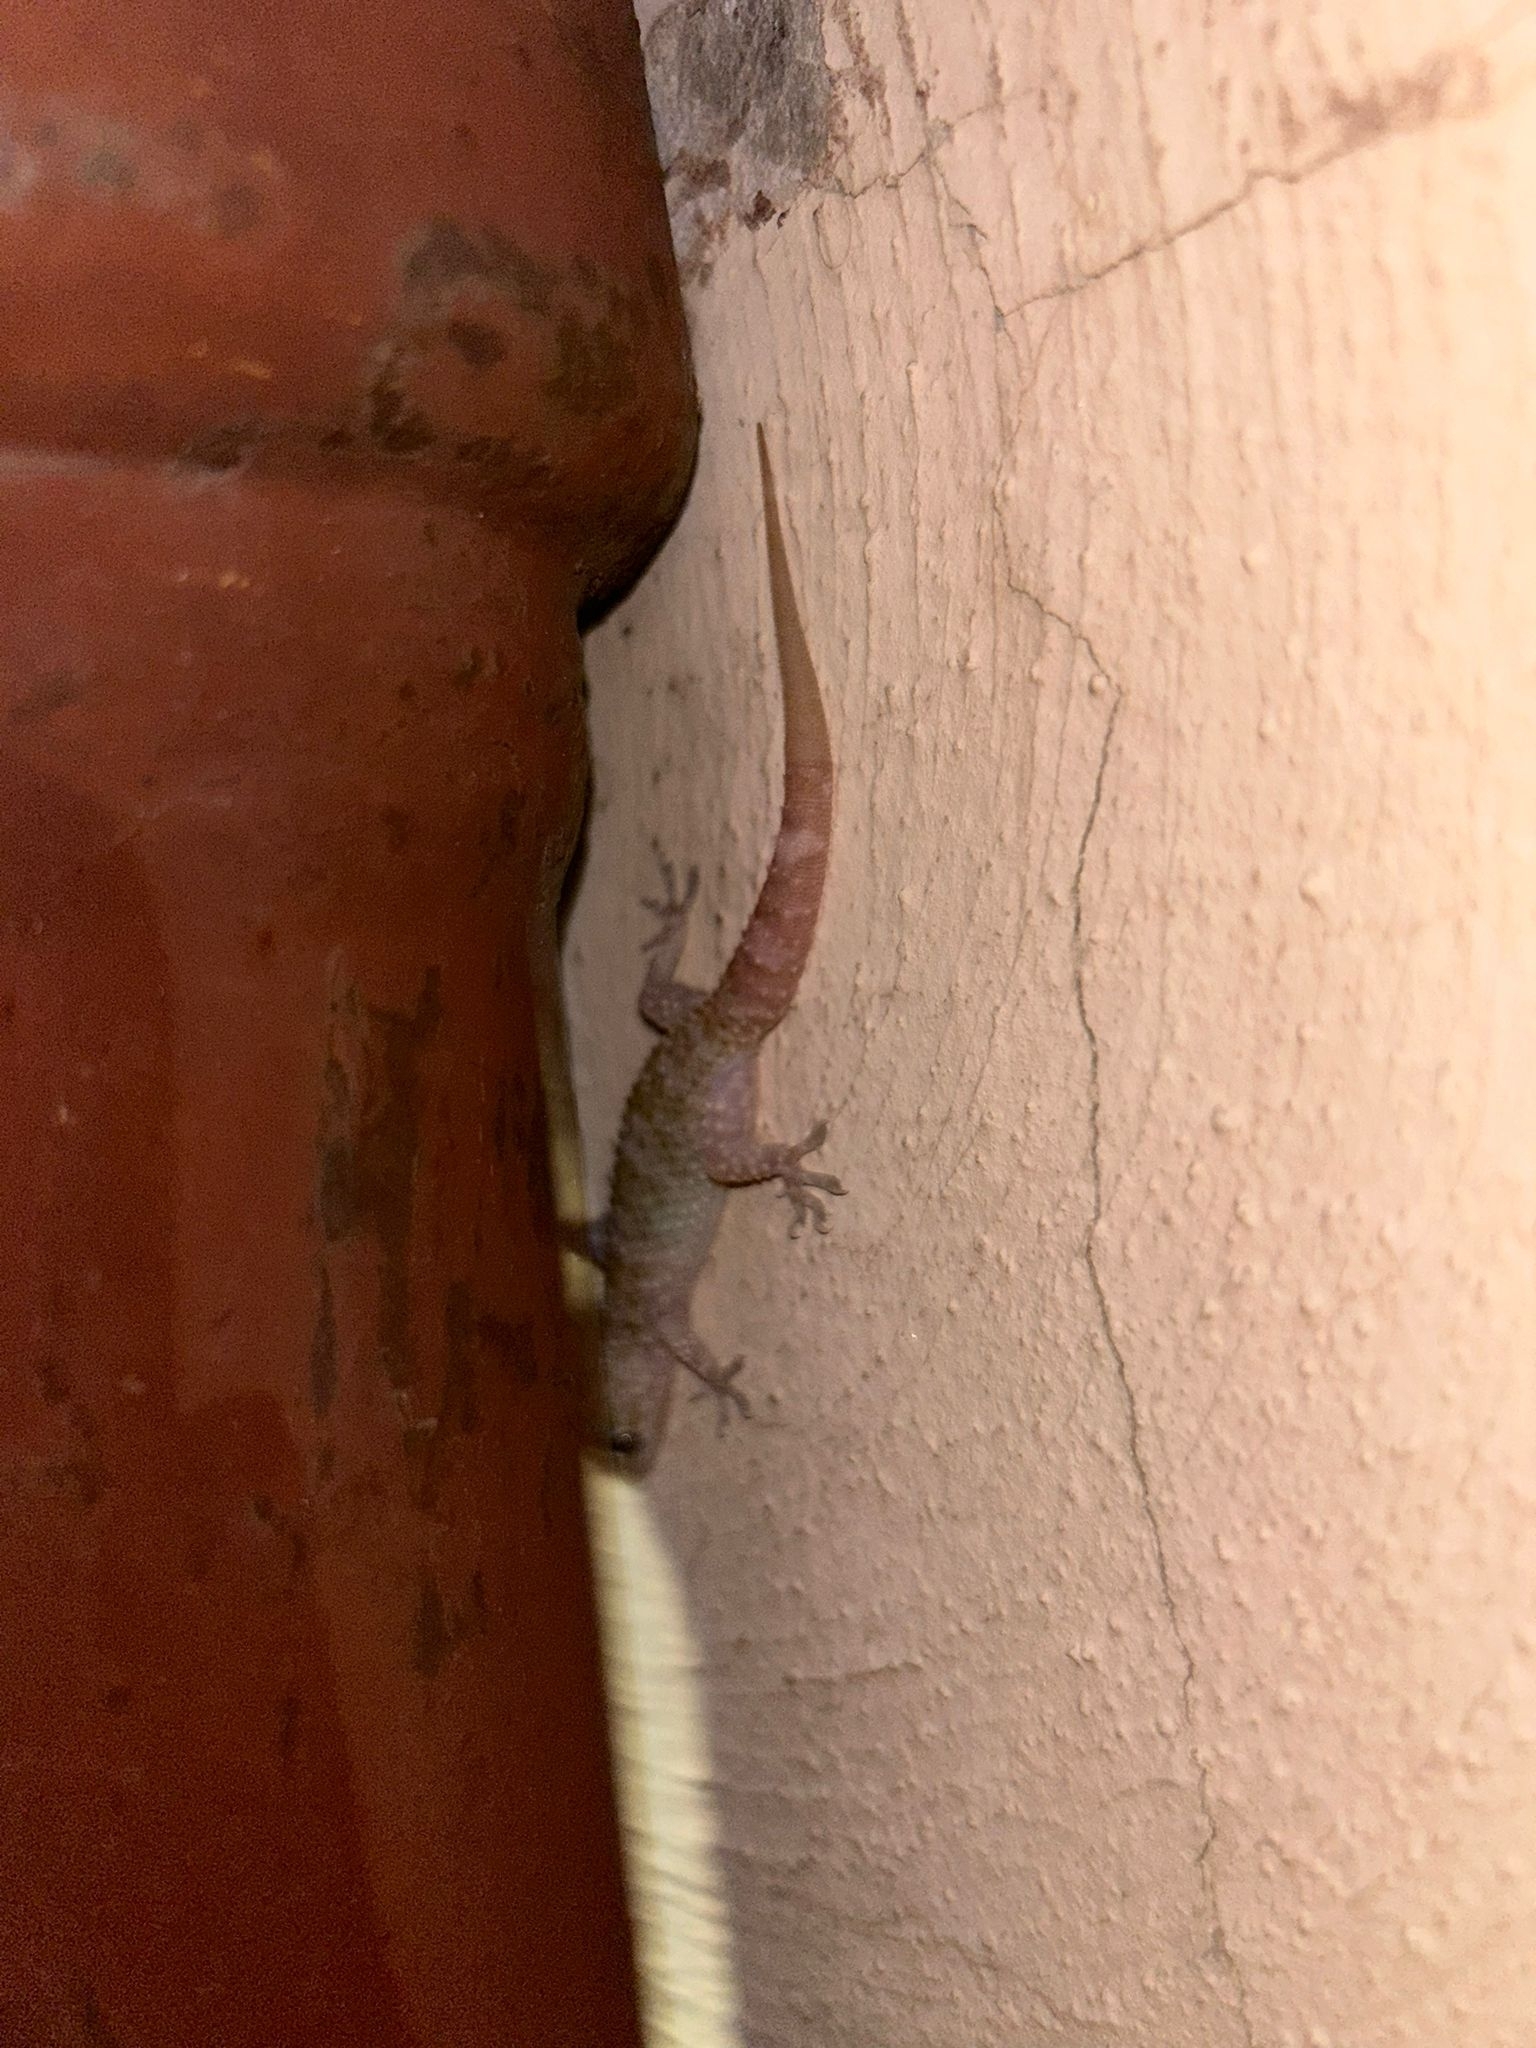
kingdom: Animalia
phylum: Chordata
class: Squamata
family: Gekkonidae
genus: Hemidactylus
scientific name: Hemidactylus turcicus
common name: Turkish gecko
